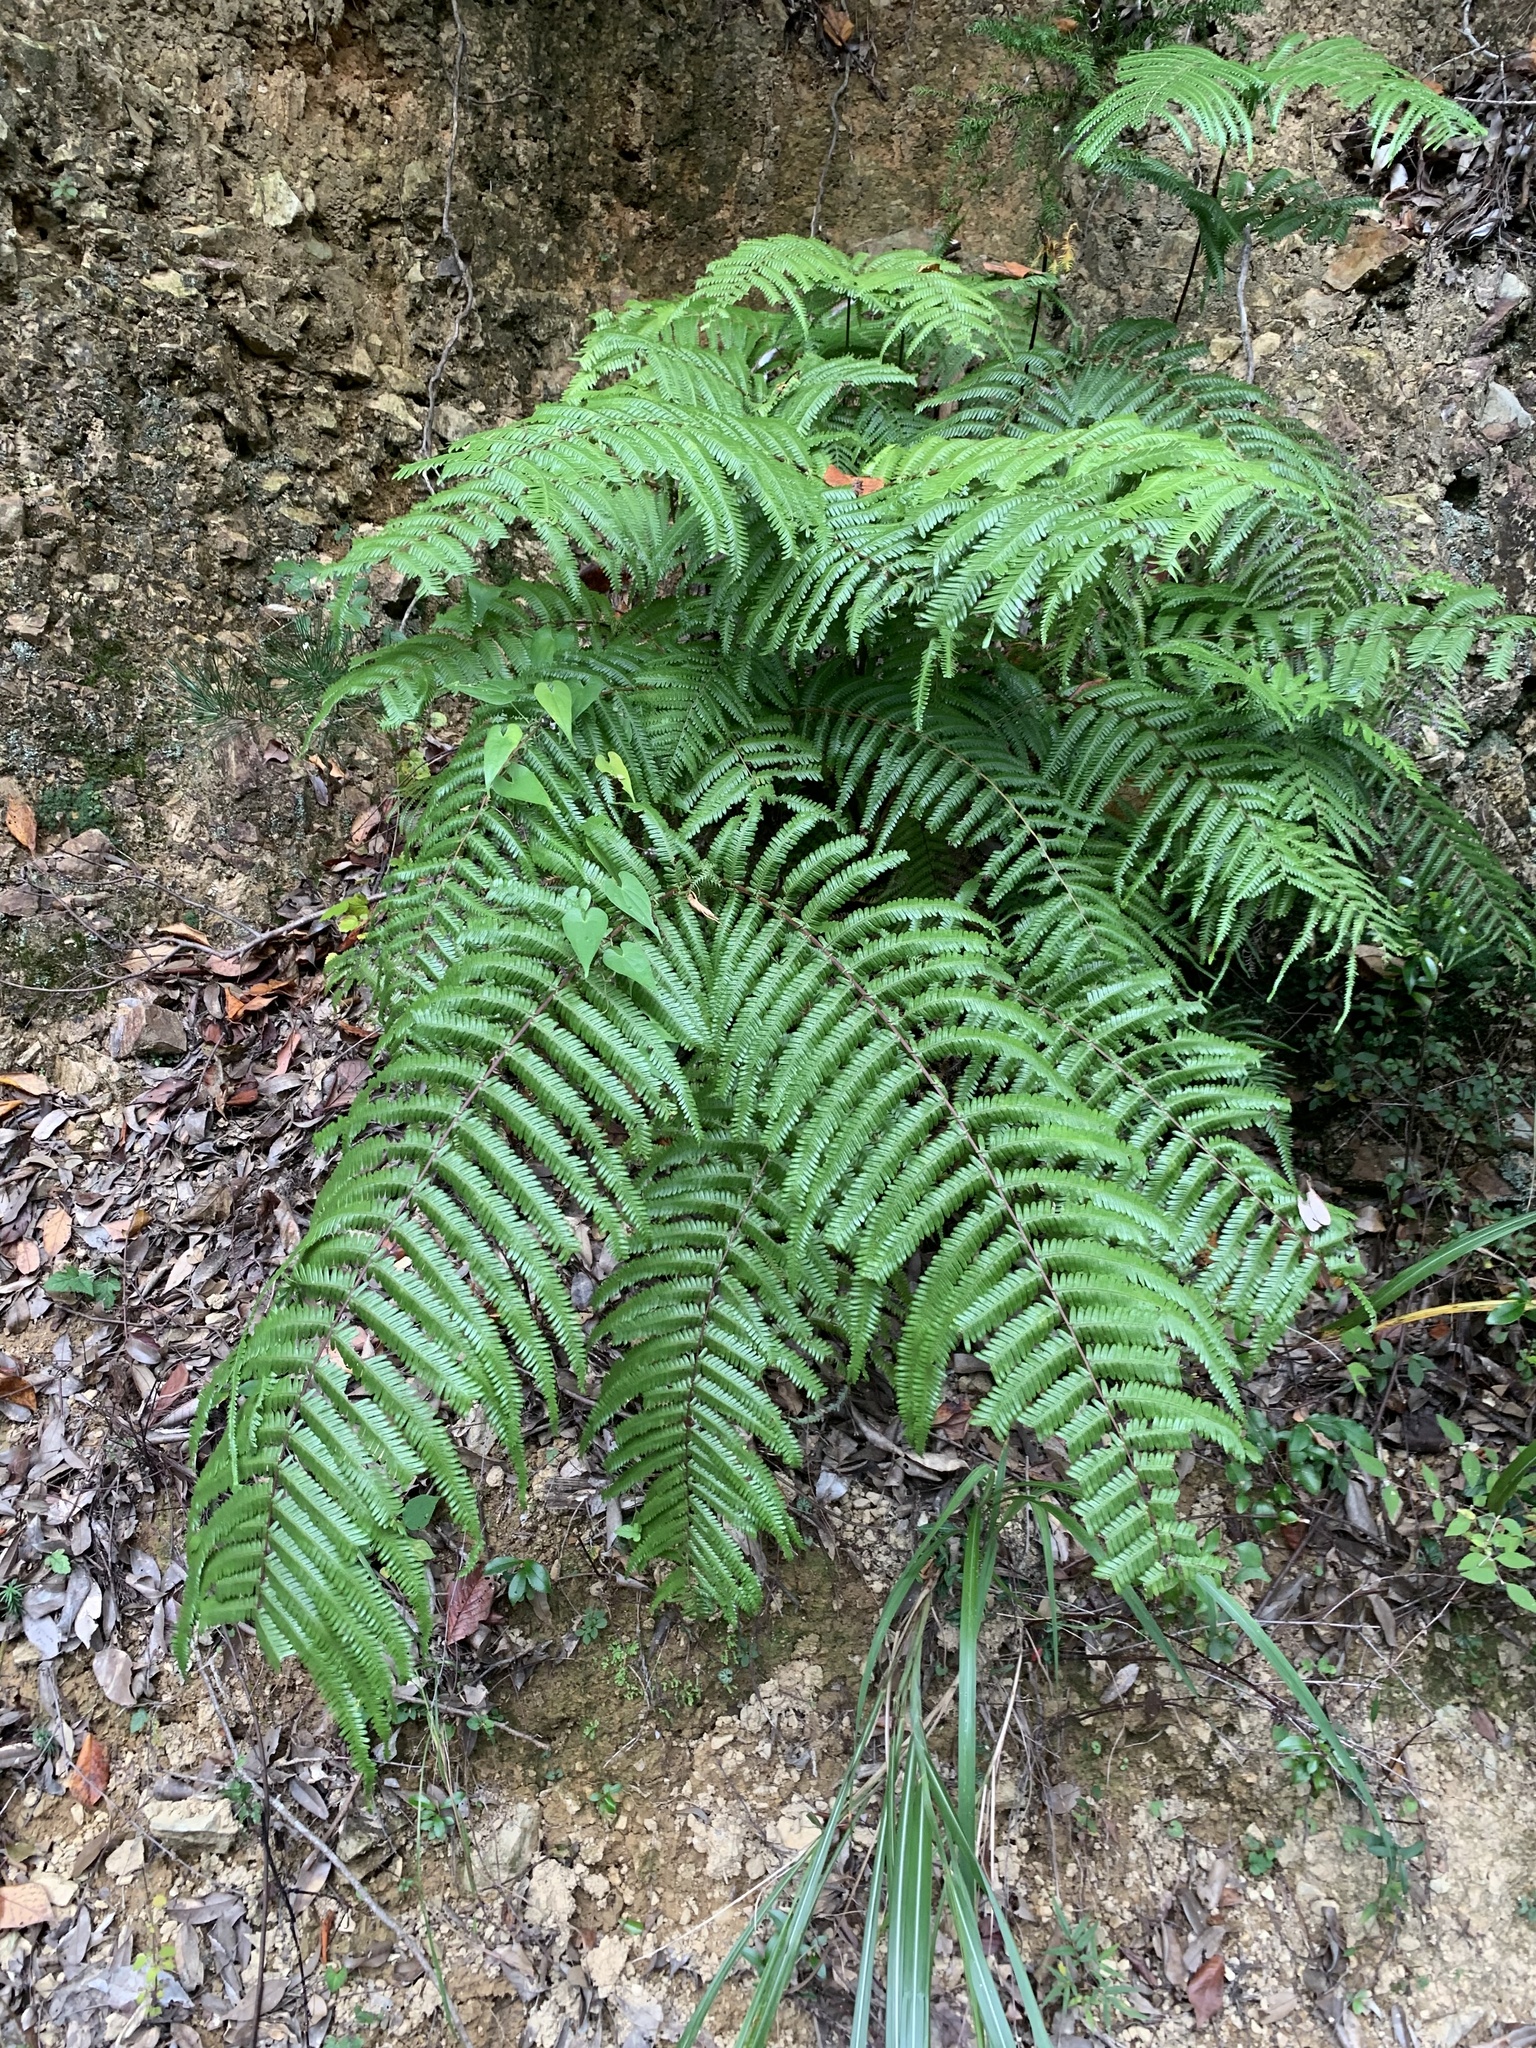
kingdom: Plantae
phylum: Tracheophyta
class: Polypodiopsida
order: Gleicheniales
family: Gleicheniaceae
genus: Diplopterygium
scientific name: Diplopterygium glaucum
